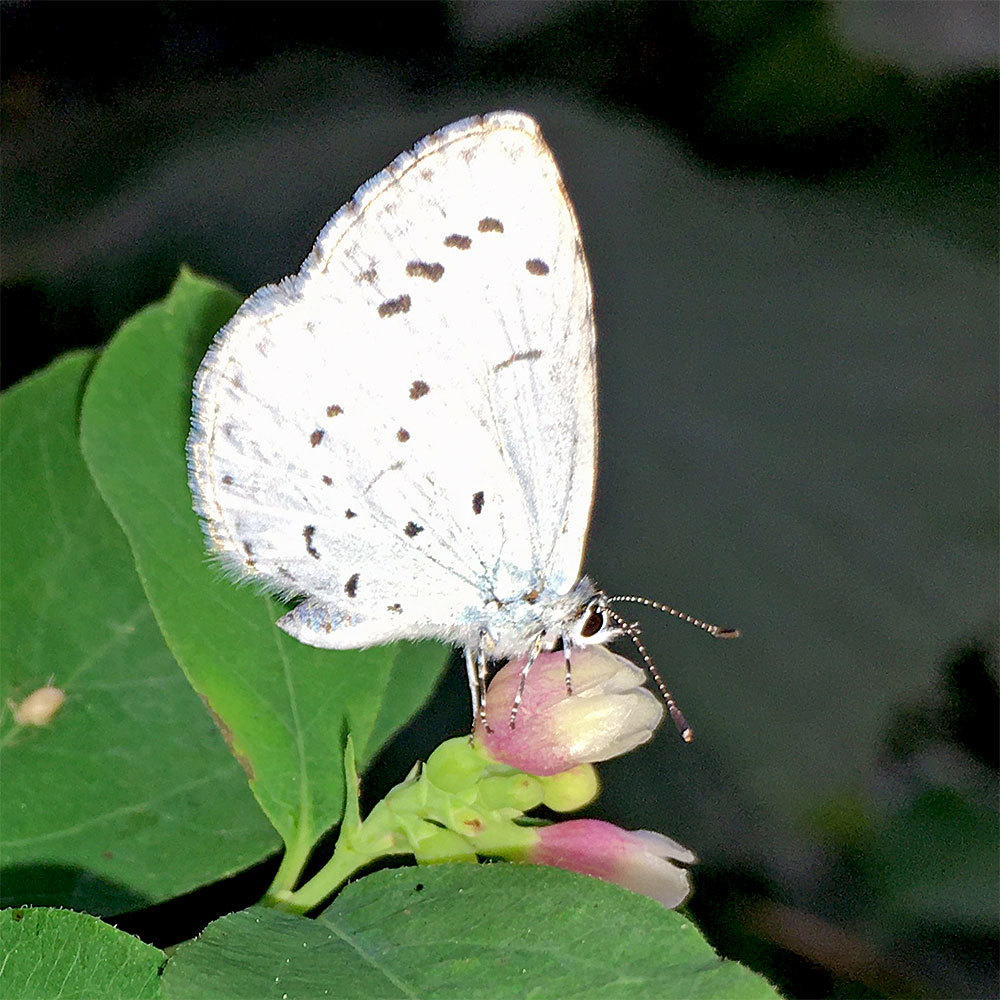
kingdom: Animalia
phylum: Arthropoda
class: Insecta
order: Lepidoptera
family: Lycaenidae
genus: Celastrina
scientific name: Celastrina argiolus
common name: Holly blue
